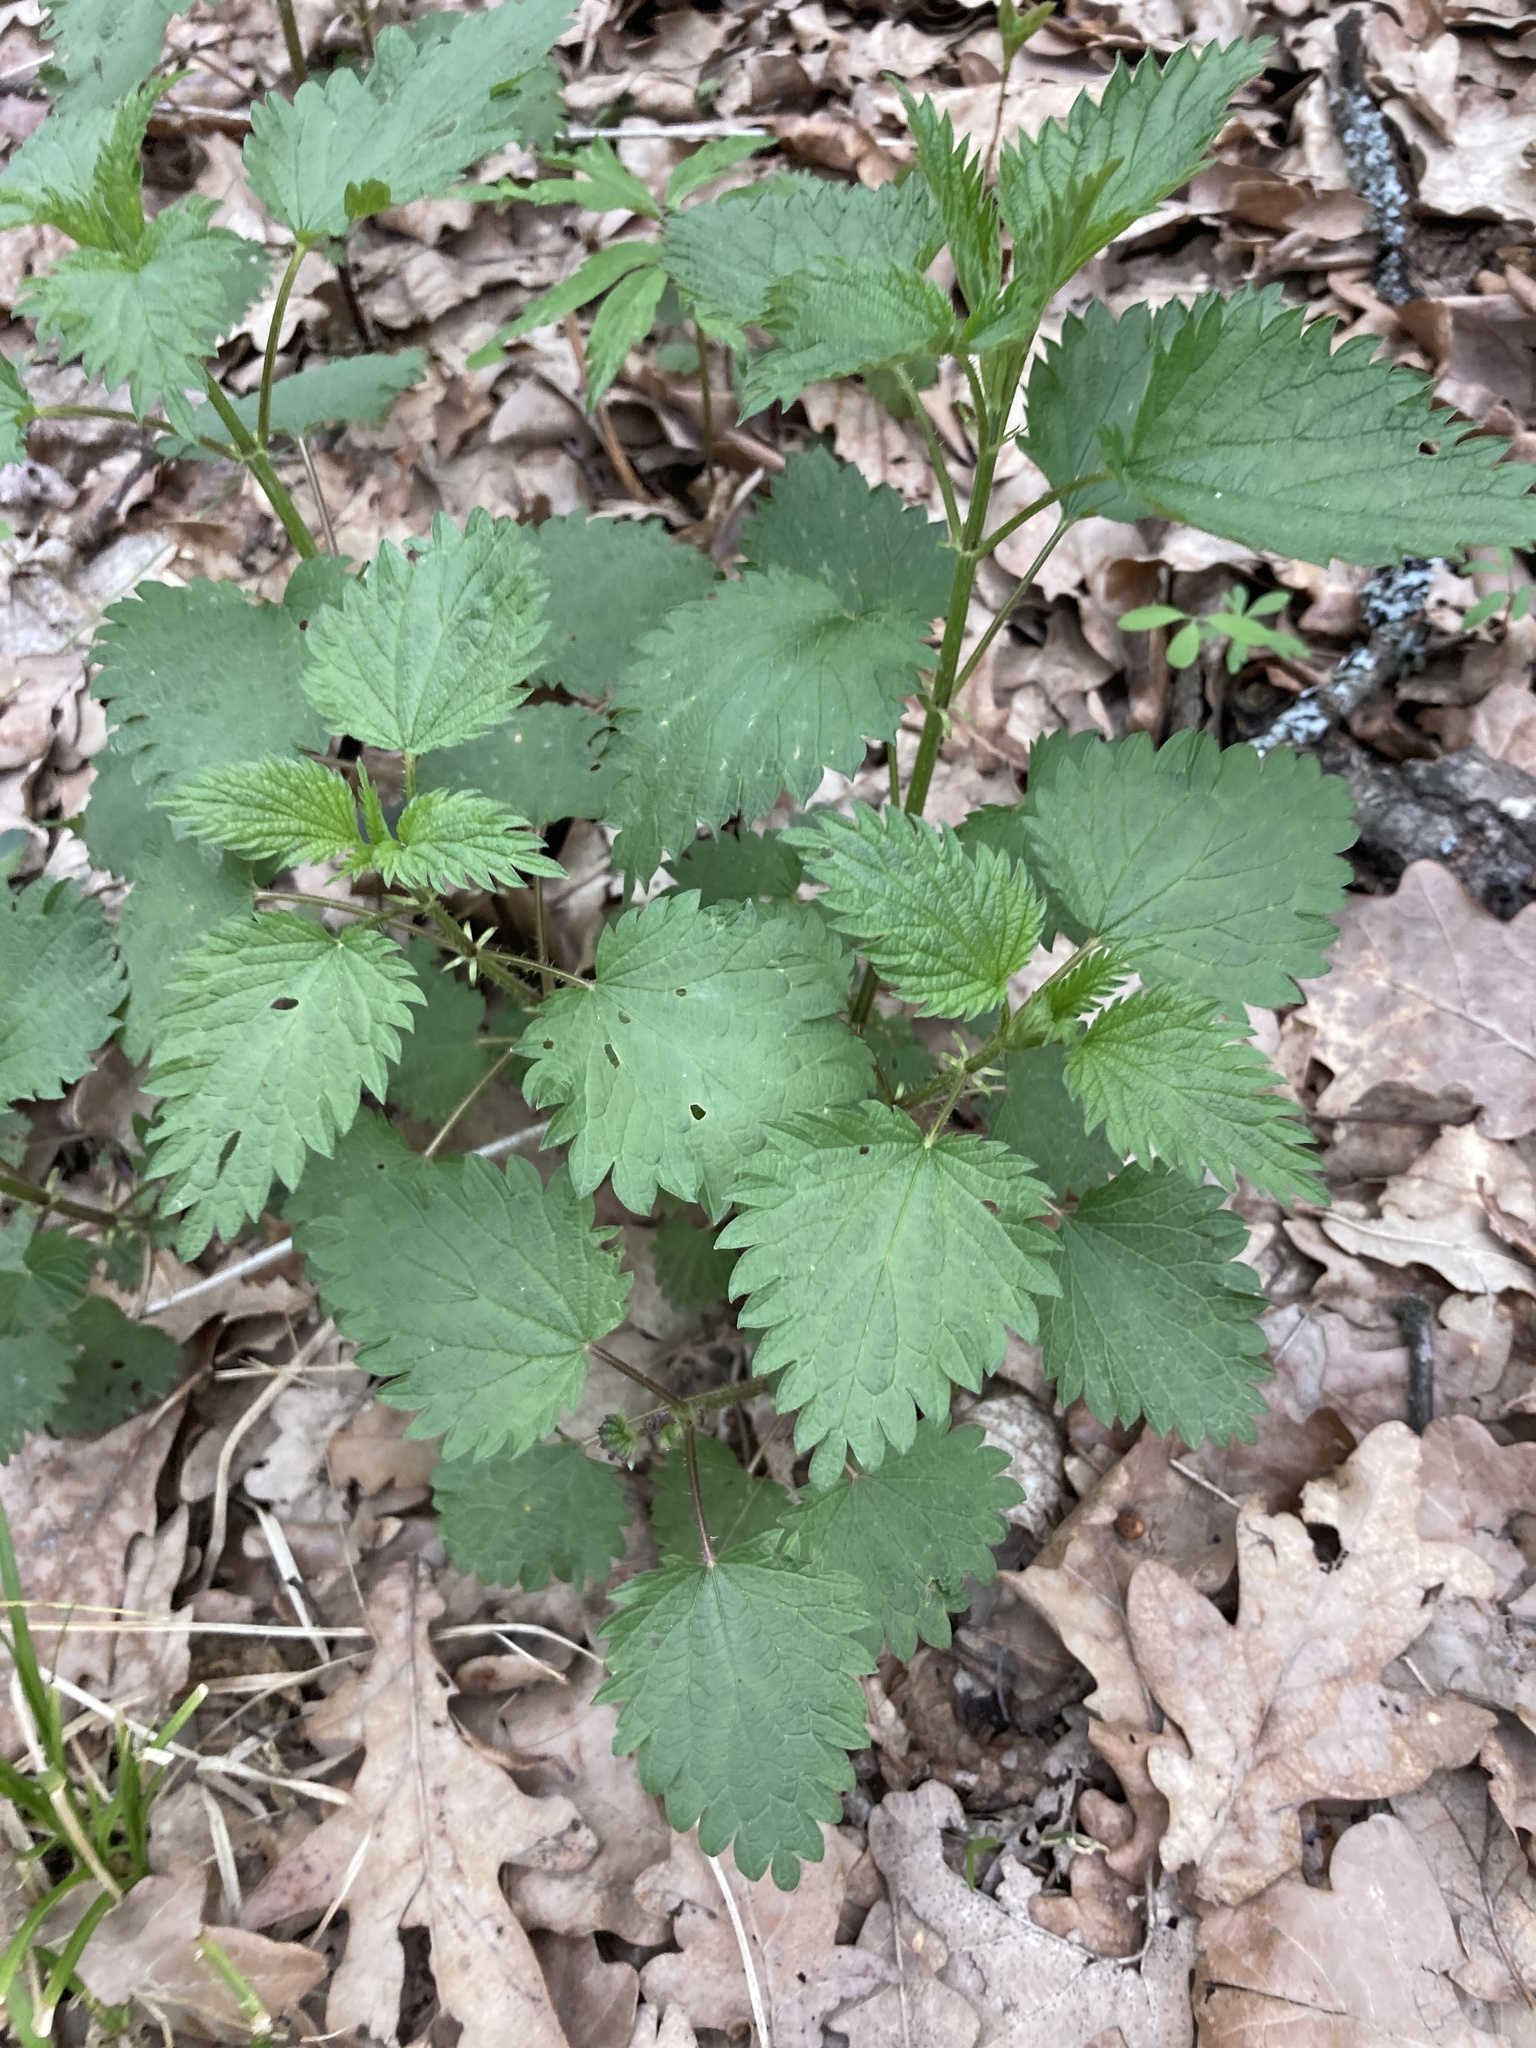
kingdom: Plantae
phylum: Tracheophyta
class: Magnoliopsida
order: Rosales
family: Urticaceae
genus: Urtica
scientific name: Urtica dioica
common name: Common nettle
